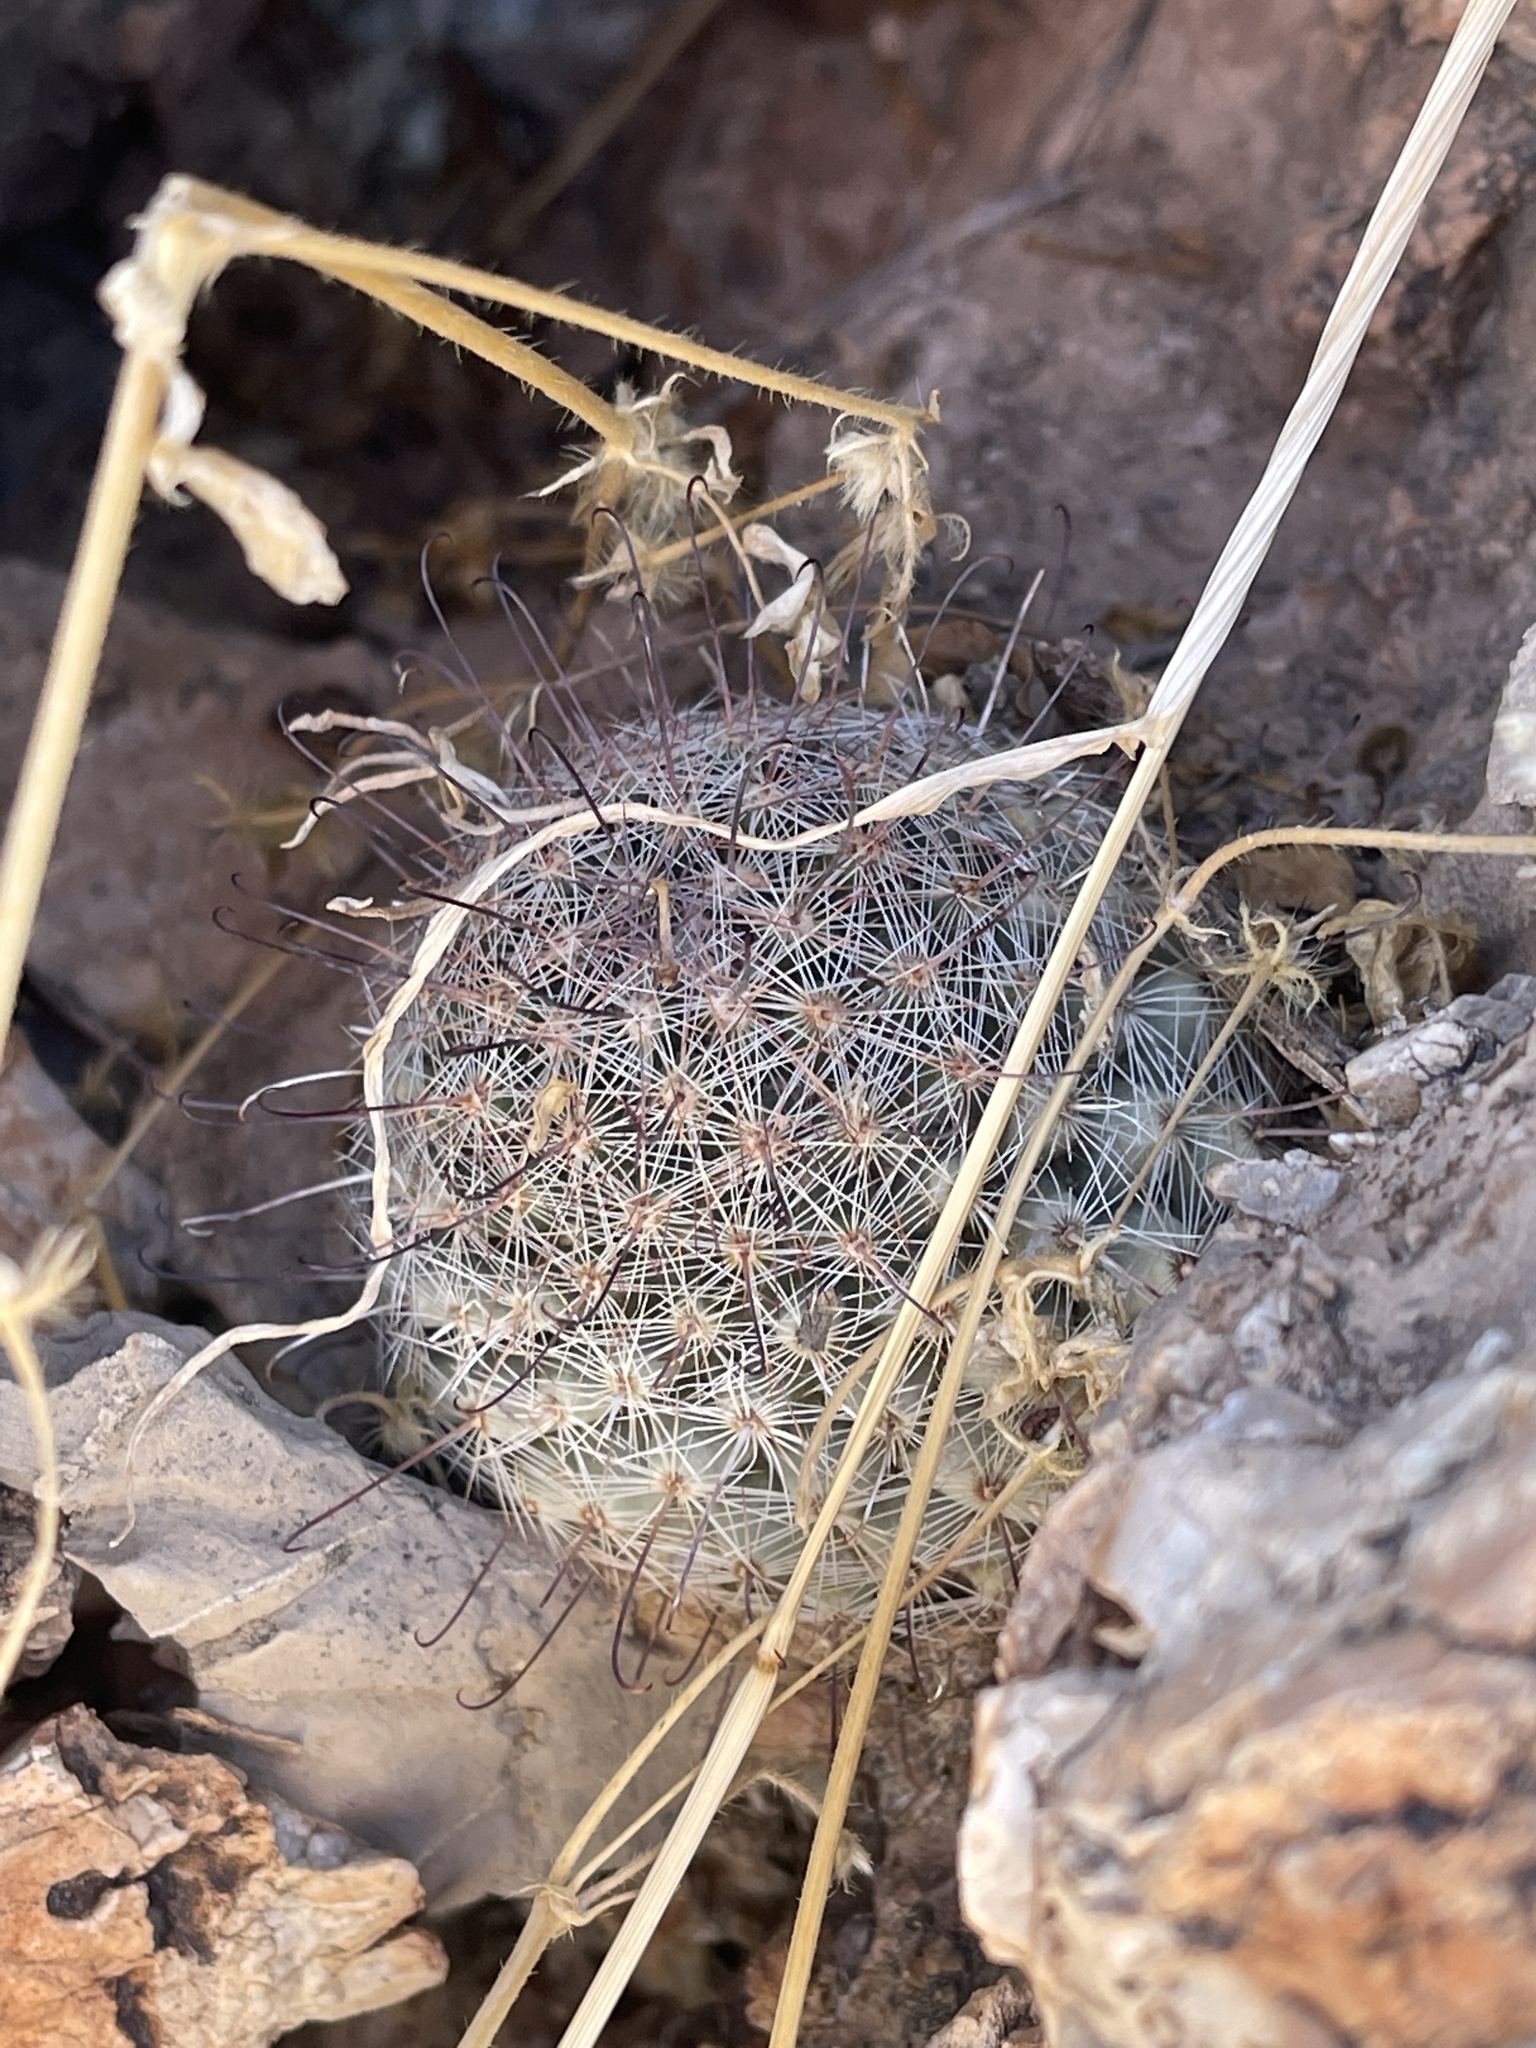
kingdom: Plantae
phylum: Tracheophyta
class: Magnoliopsida
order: Caryophyllales
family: Cactaceae
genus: Cochemiea
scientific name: Cochemiea grahamii
